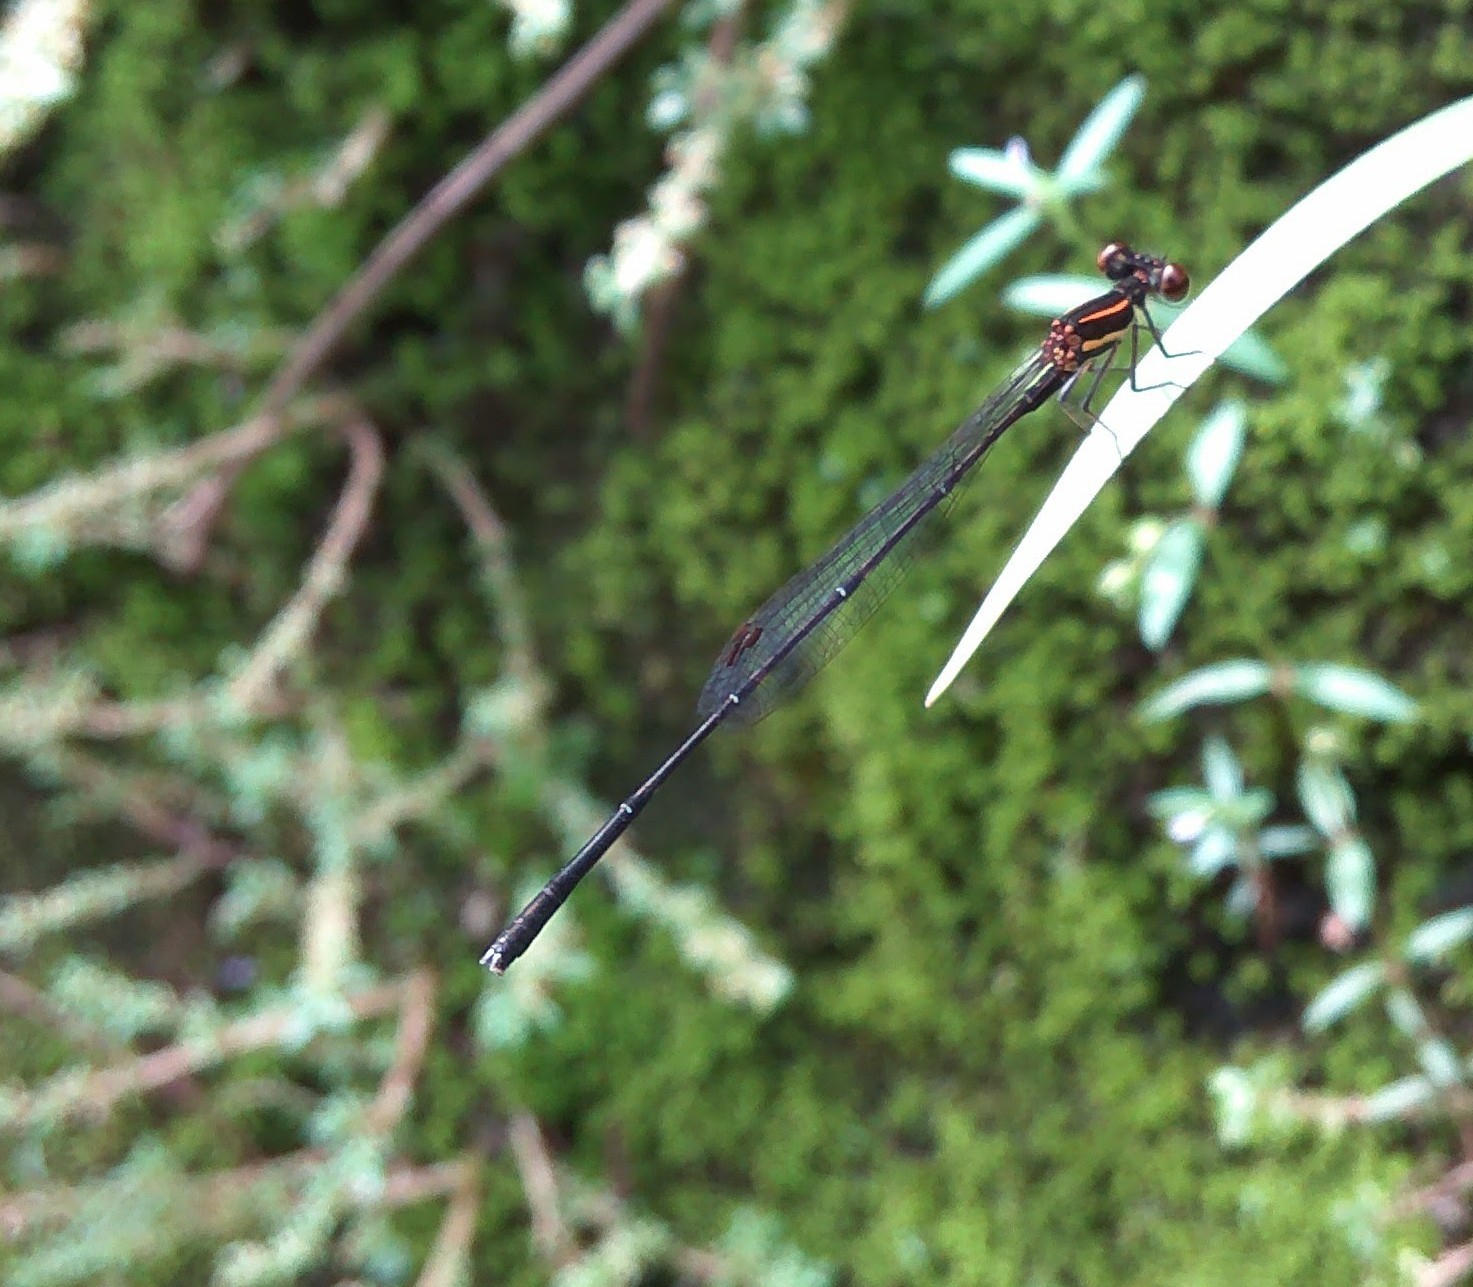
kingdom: Animalia
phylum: Arthropoda
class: Insecta
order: Odonata
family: Platycnemididae
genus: Prodasineura
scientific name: Prodasineura verticalis
